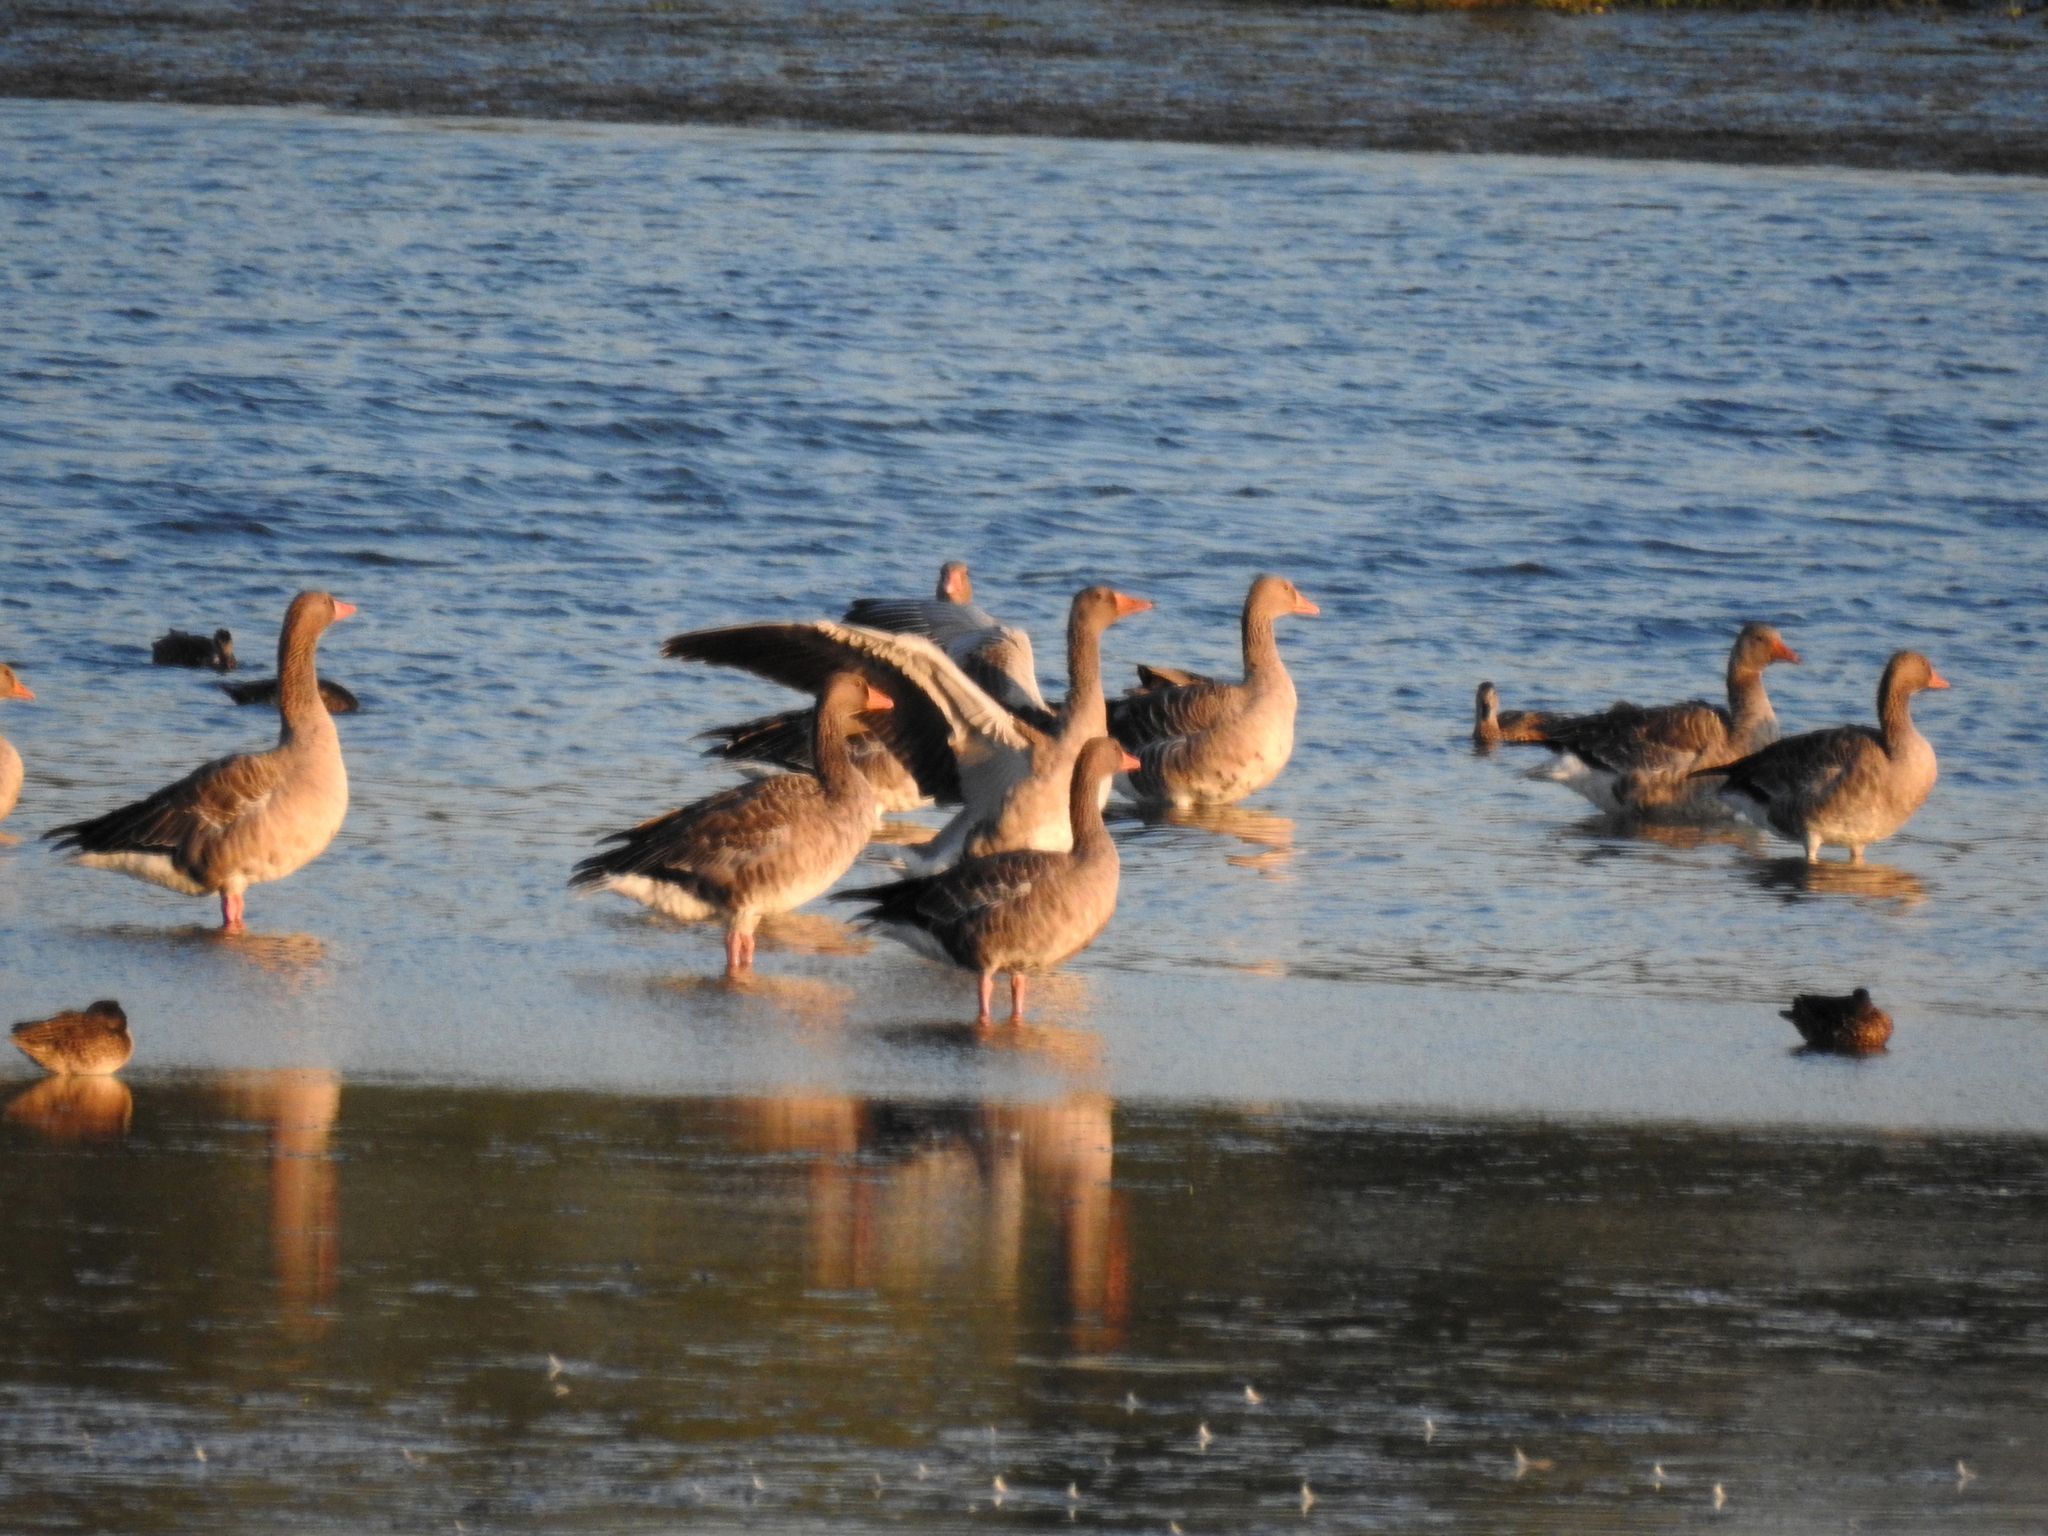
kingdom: Animalia
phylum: Chordata
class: Aves
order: Anseriformes
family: Anatidae
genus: Anser
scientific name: Anser anser
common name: Greylag goose
